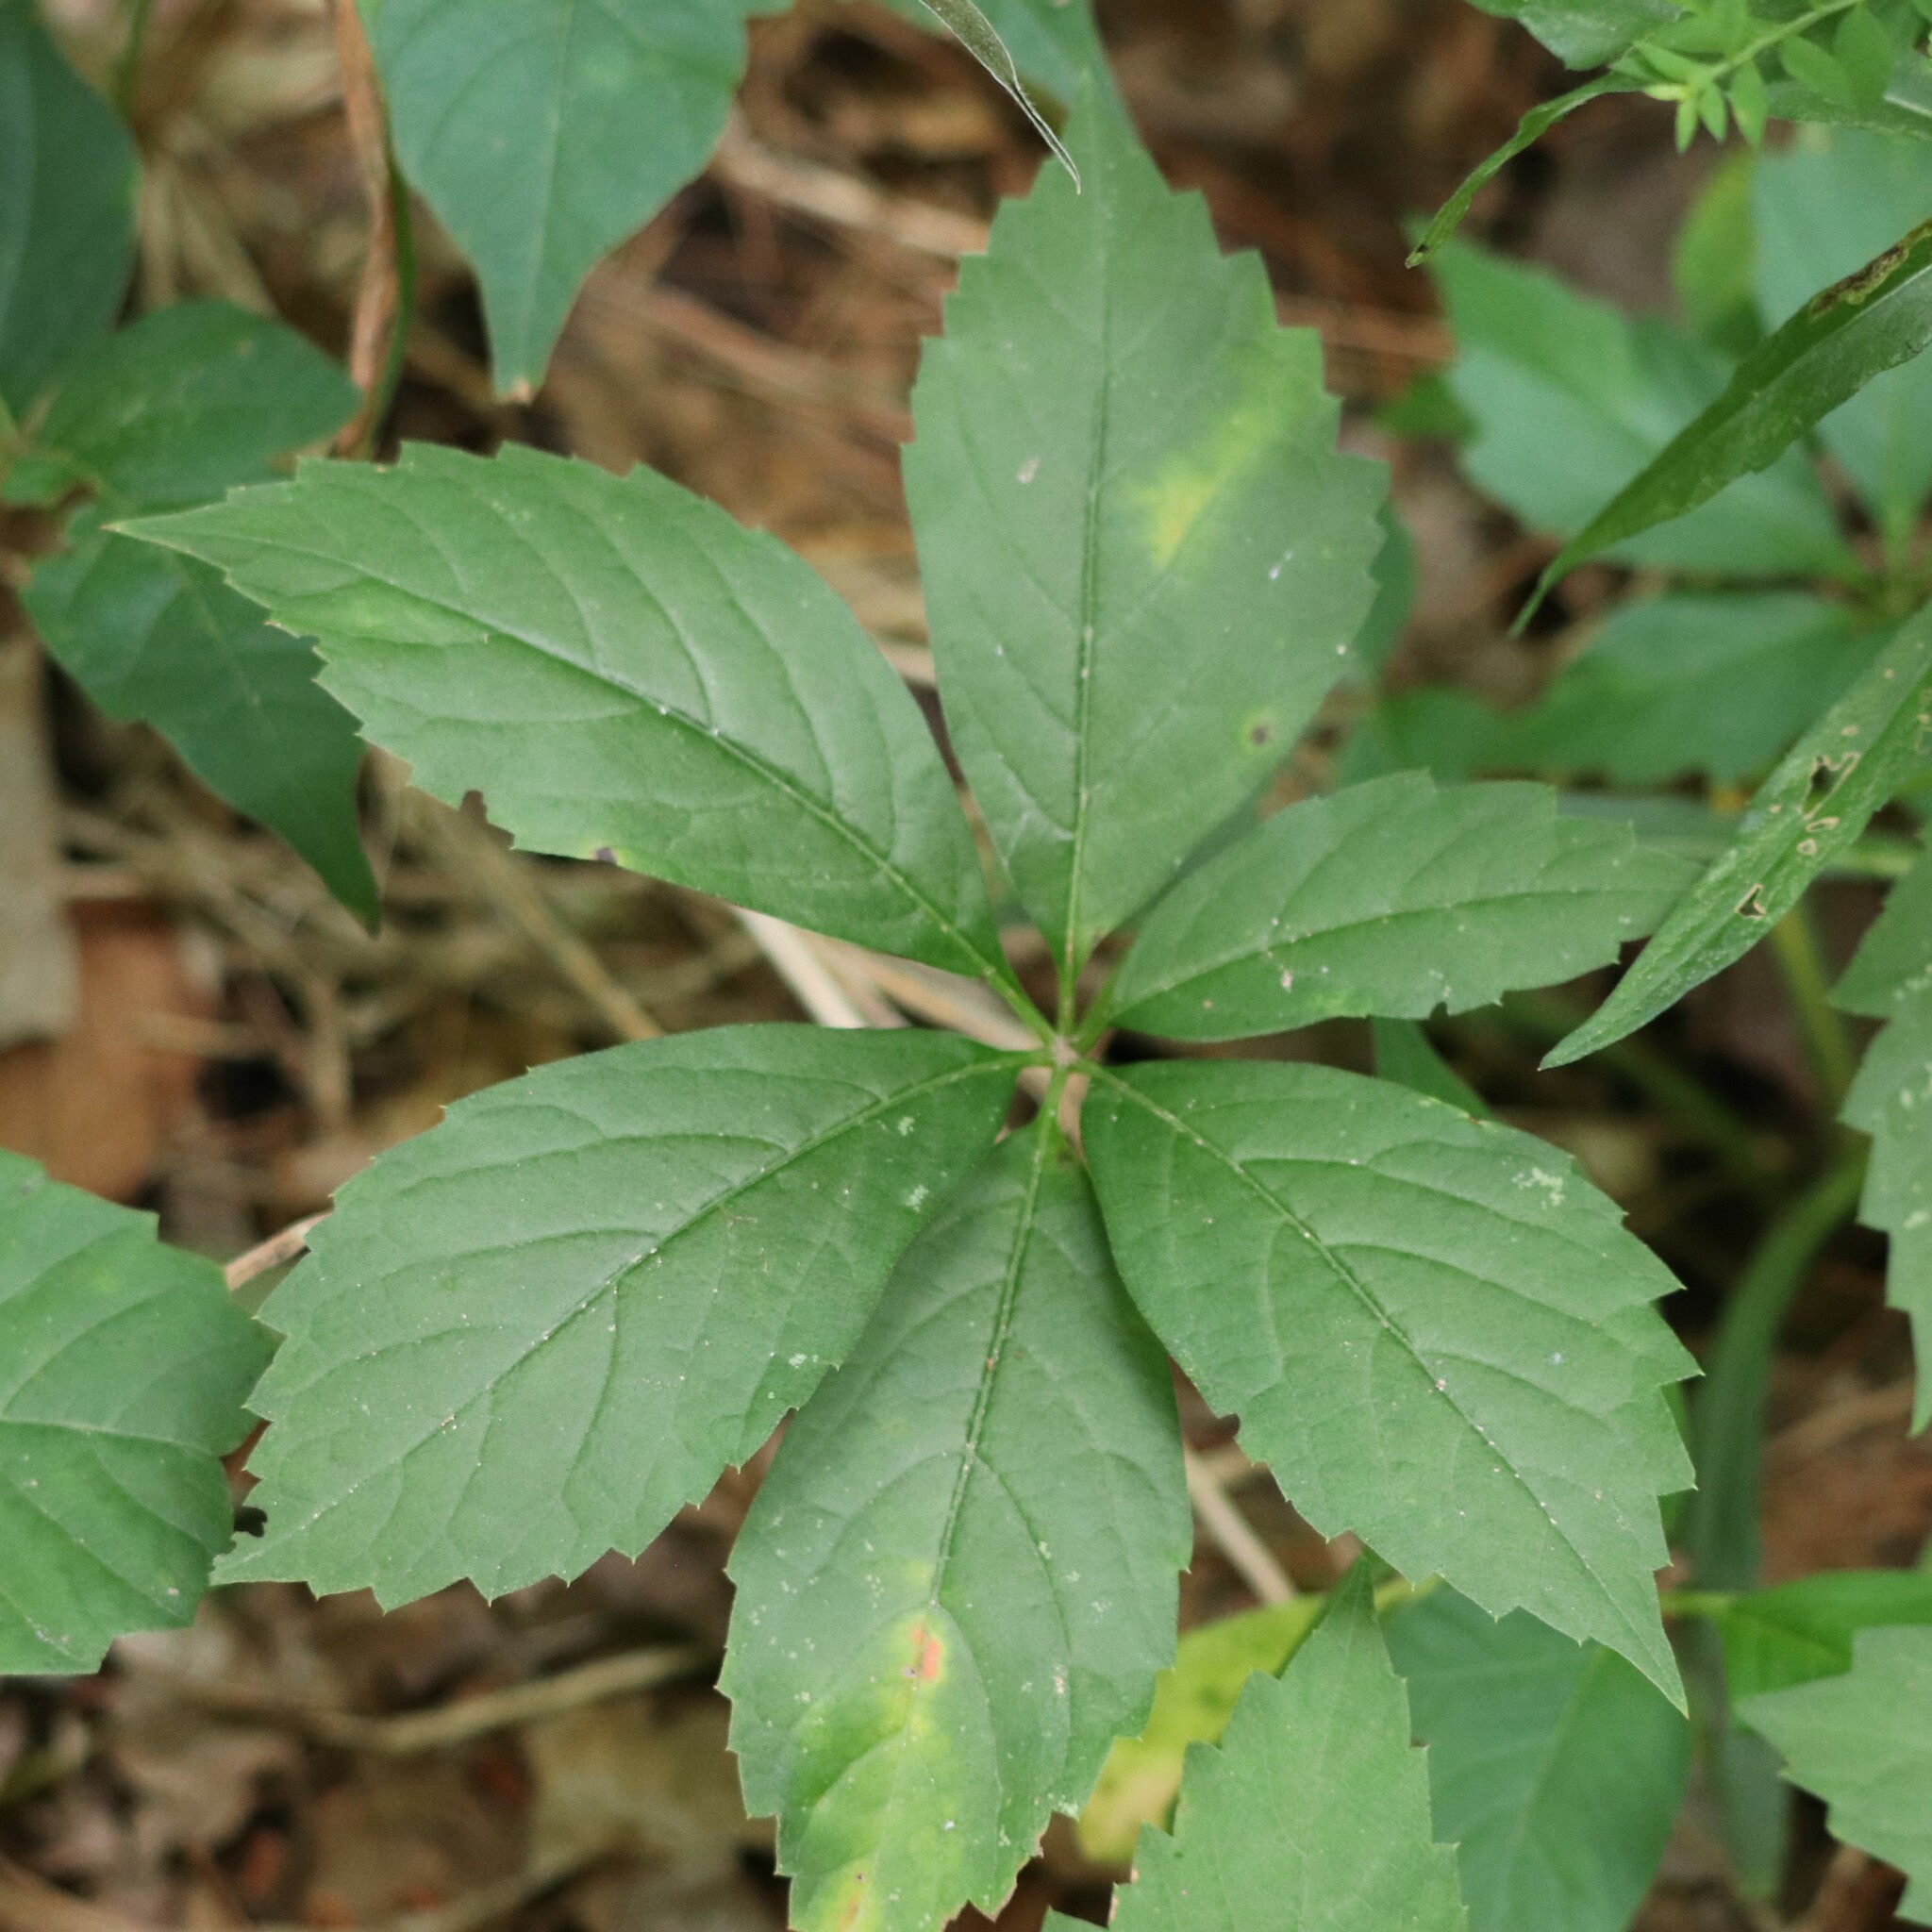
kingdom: Plantae
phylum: Tracheophyta
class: Magnoliopsida
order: Vitales
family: Vitaceae
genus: Parthenocissus
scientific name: Parthenocissus quinquefolia
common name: Virginia-creeper
